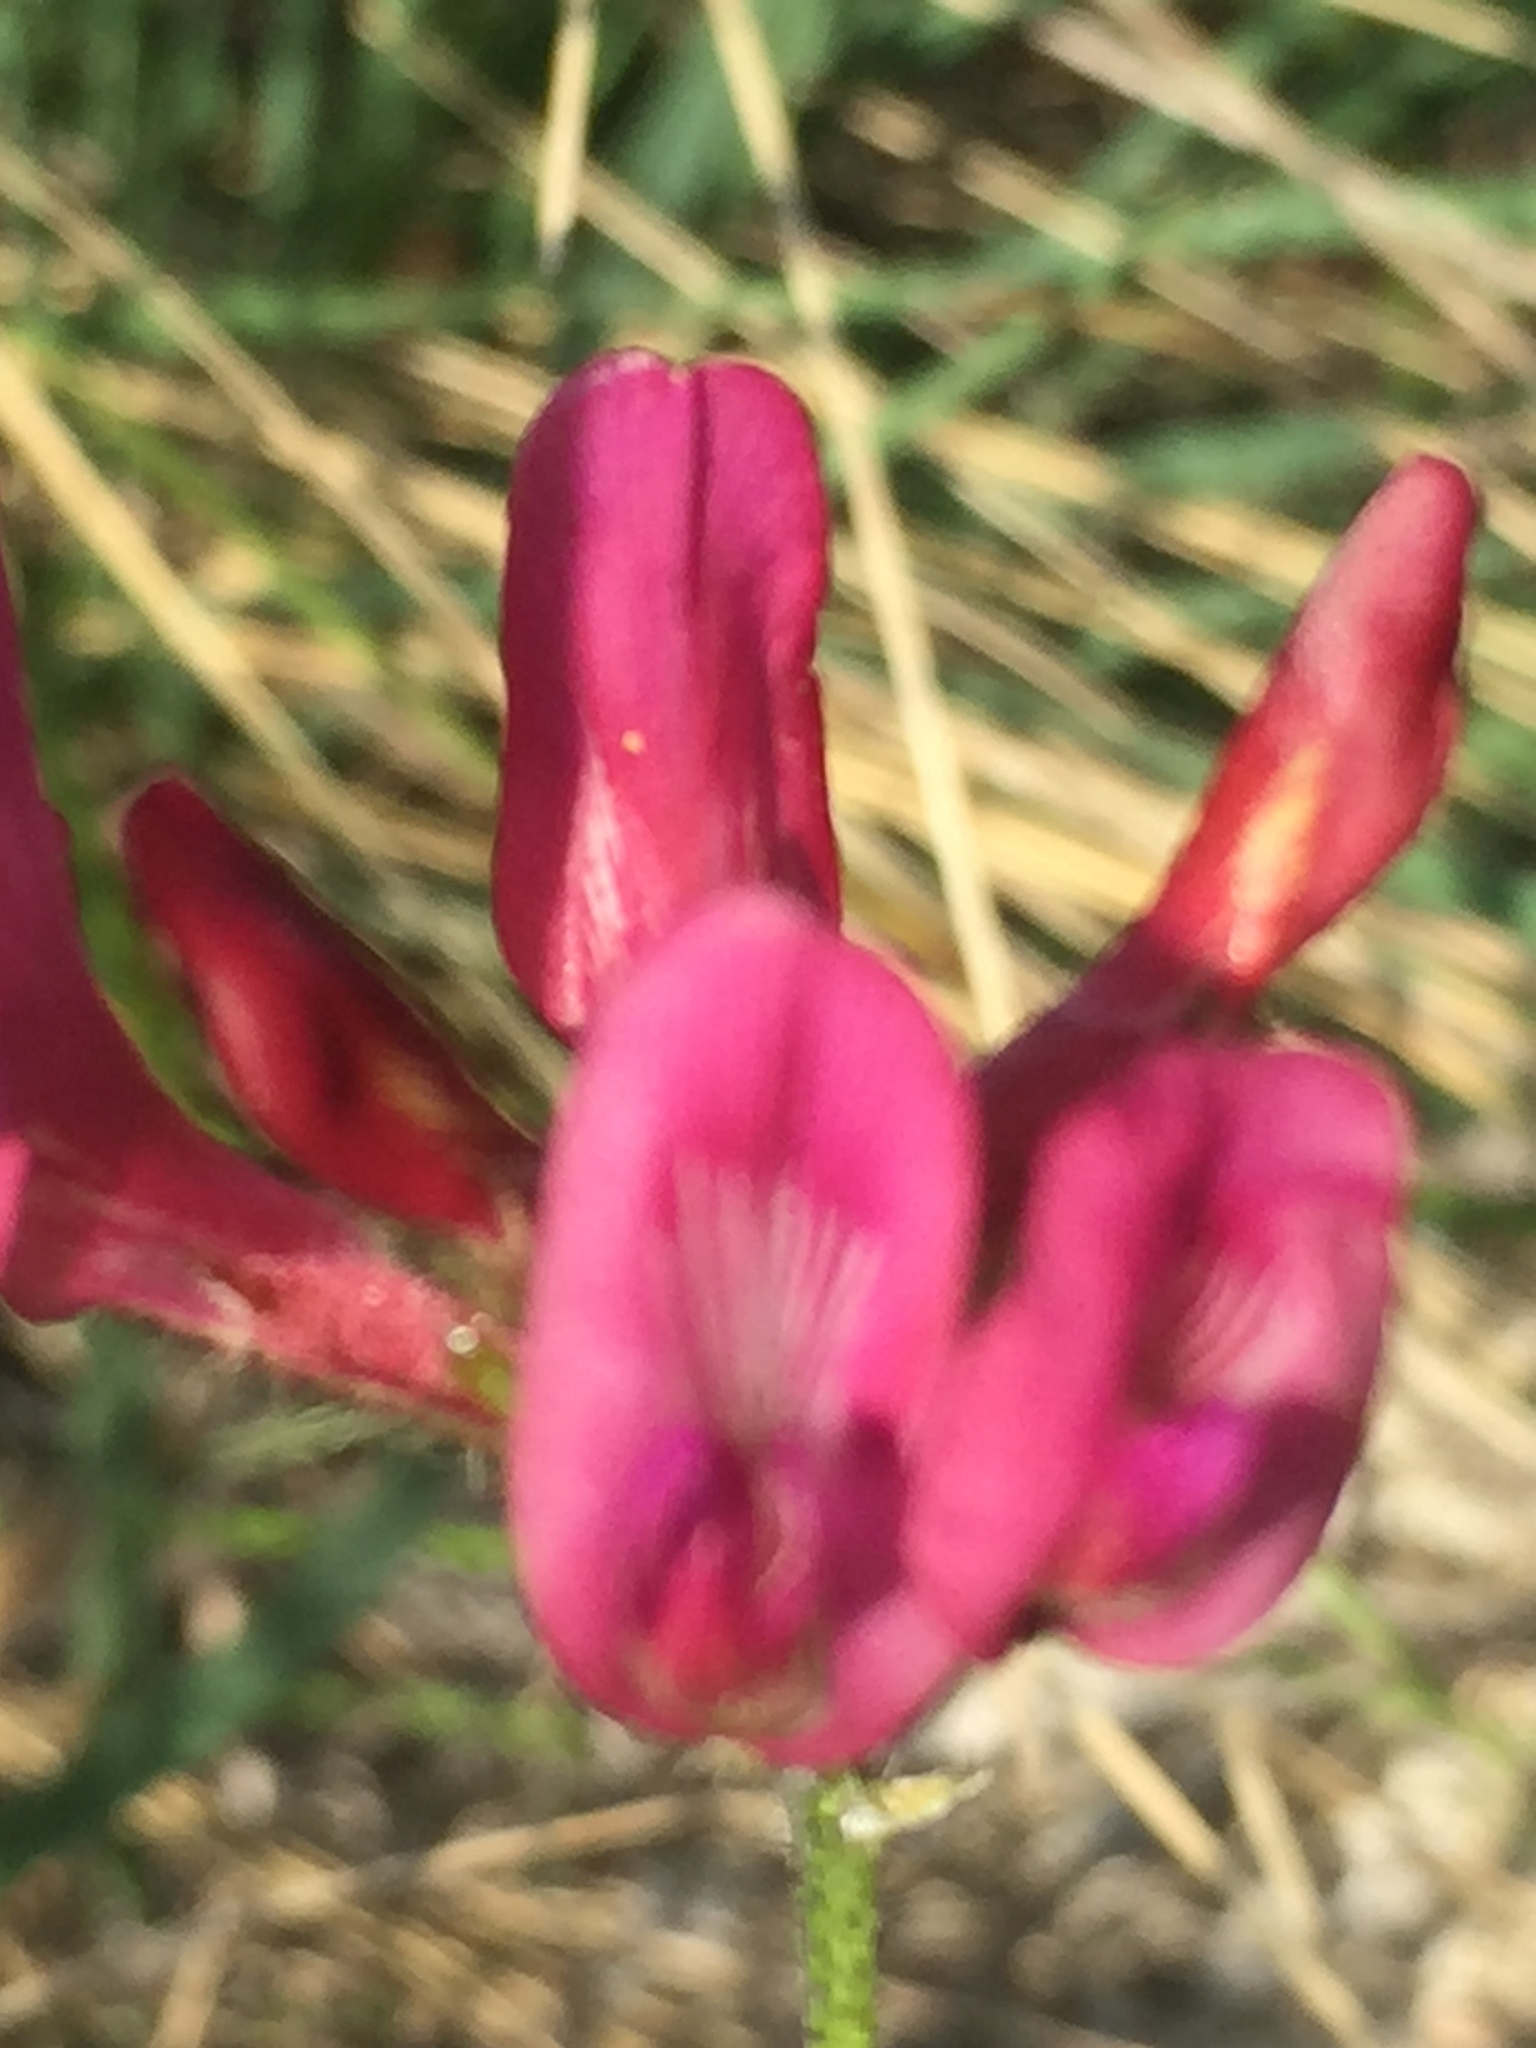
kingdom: Plantae
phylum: Tracheophyta
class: Magnoliopsida
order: Fabales
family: Fabaceae
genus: Astragalus
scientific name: Astragalus cornutus
